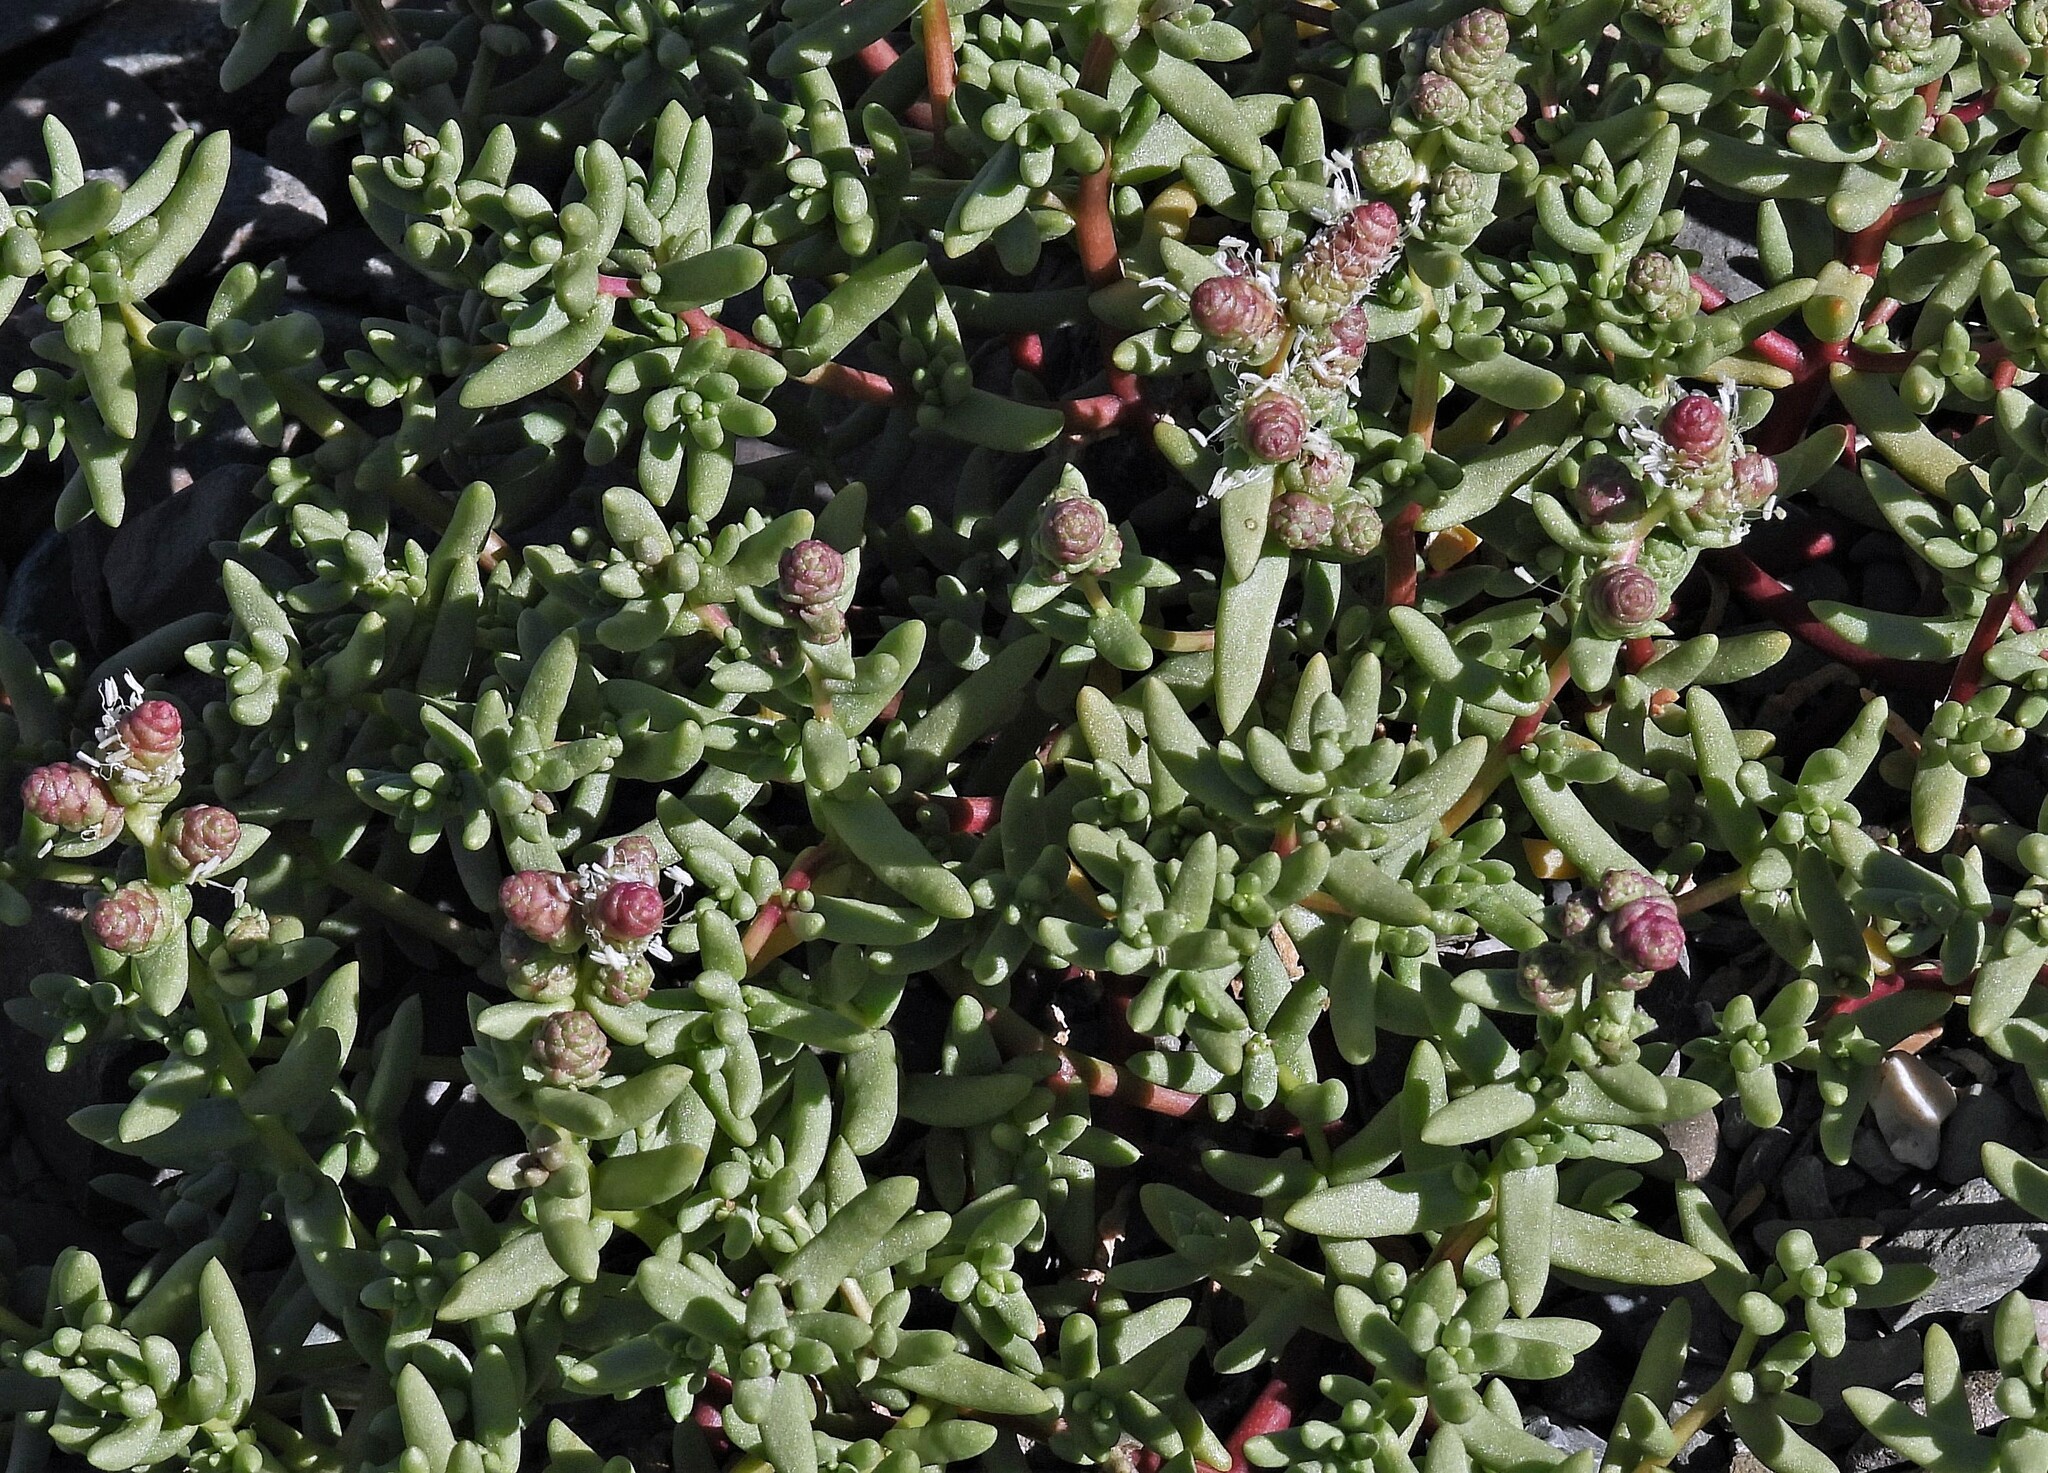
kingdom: Plantae
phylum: Tracheophyta
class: Magnoliopsida
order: Caryophyllales
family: Halophytaceae
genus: Halophytum
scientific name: Halophytum ameghinoi
